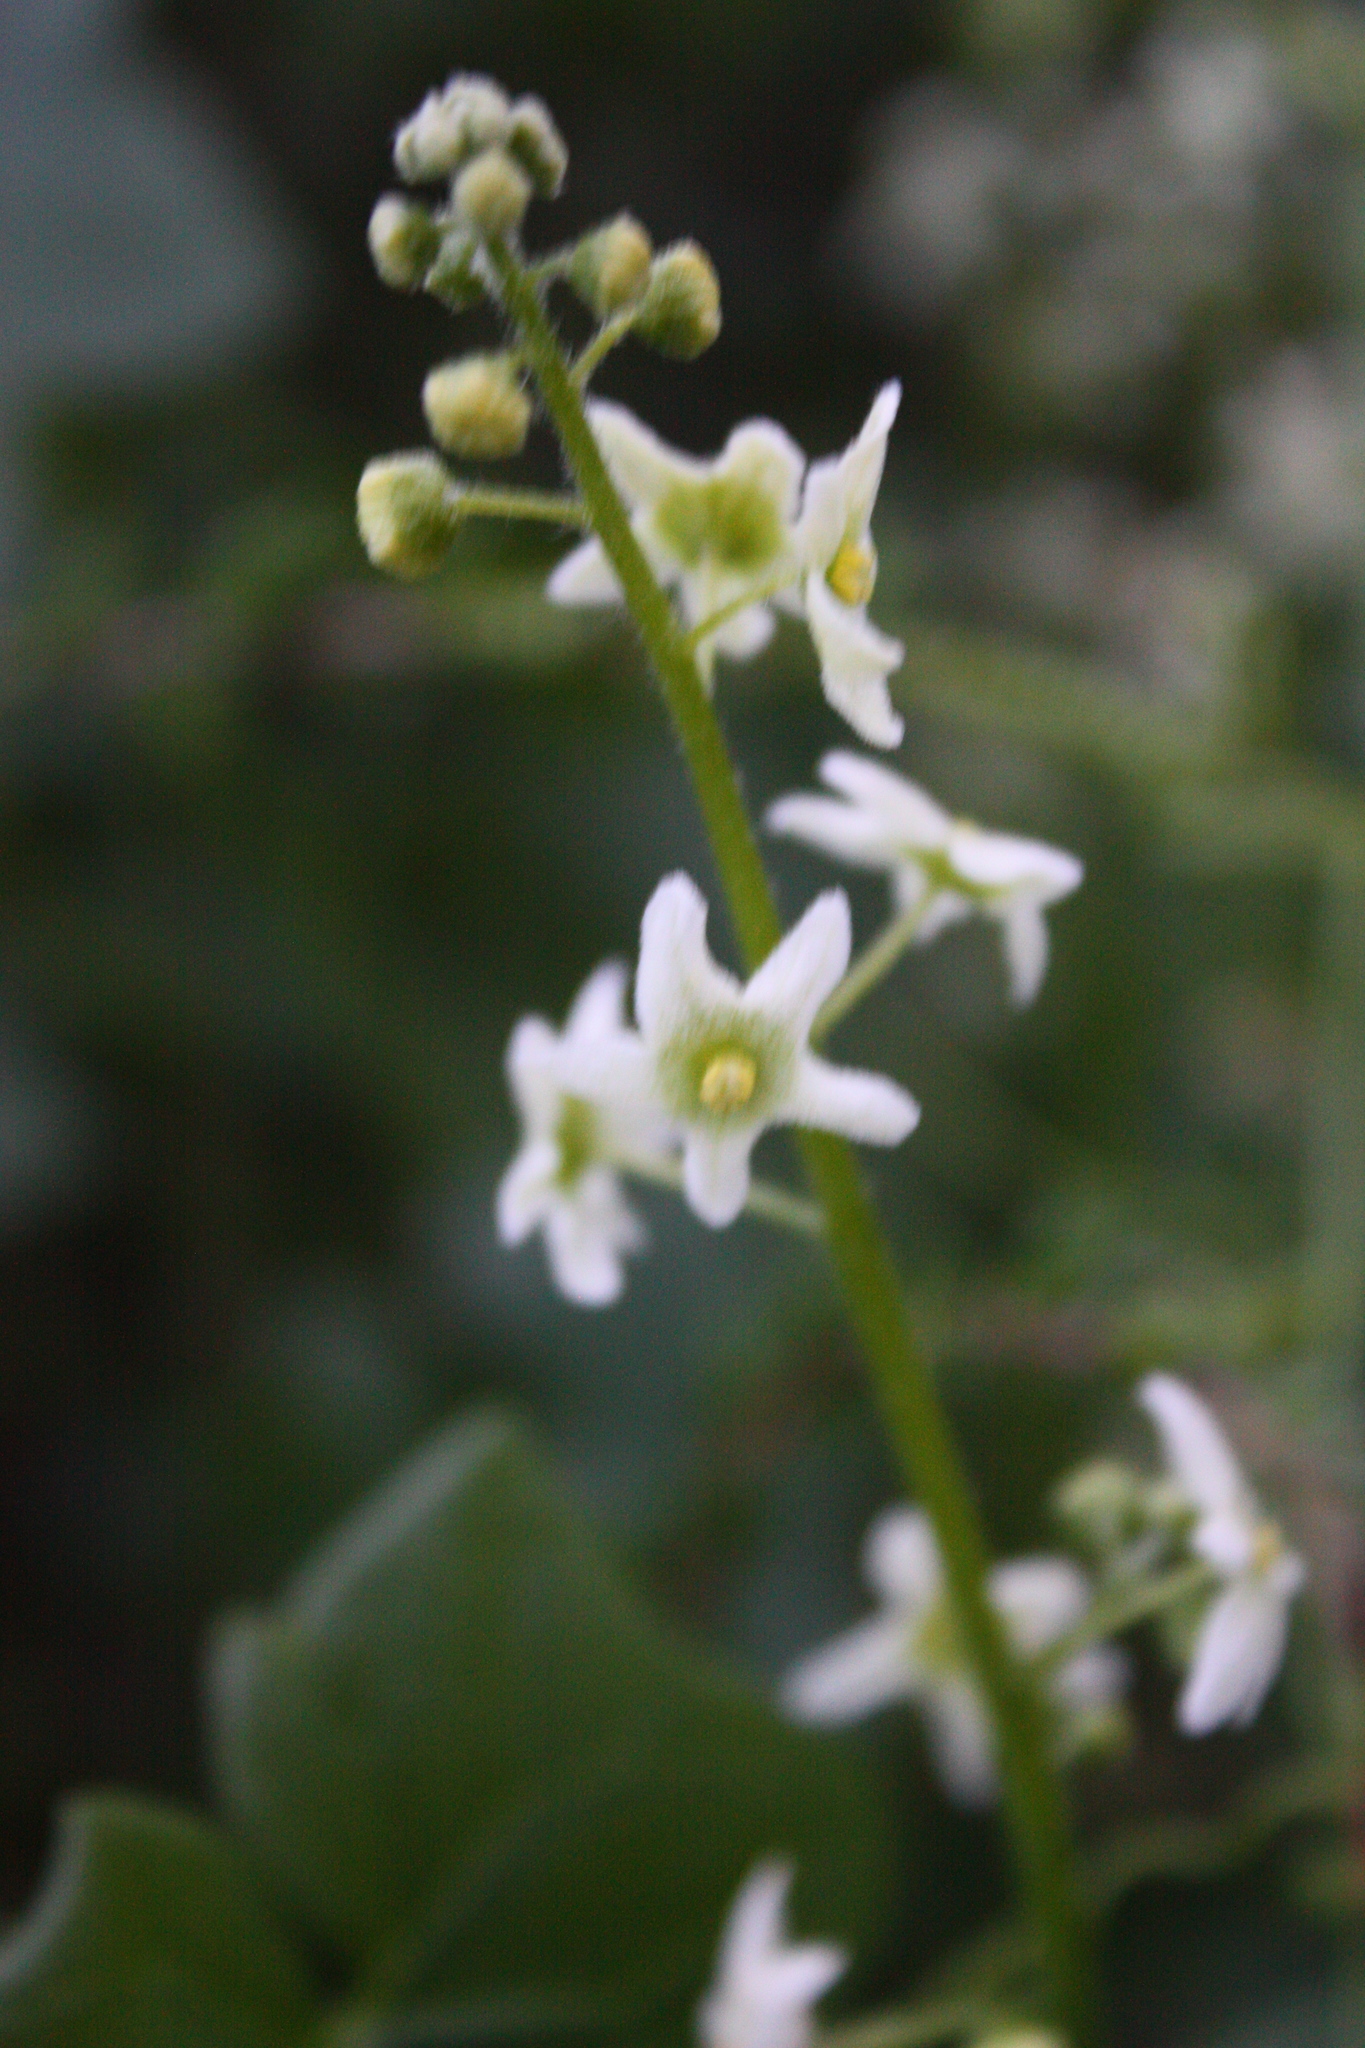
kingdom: Plantae
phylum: Tracheophyta
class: Magnoliopsida
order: Cucurbitales
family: Cucurbitaceae
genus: Marah
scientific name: Marah fabacea
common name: California manroot
